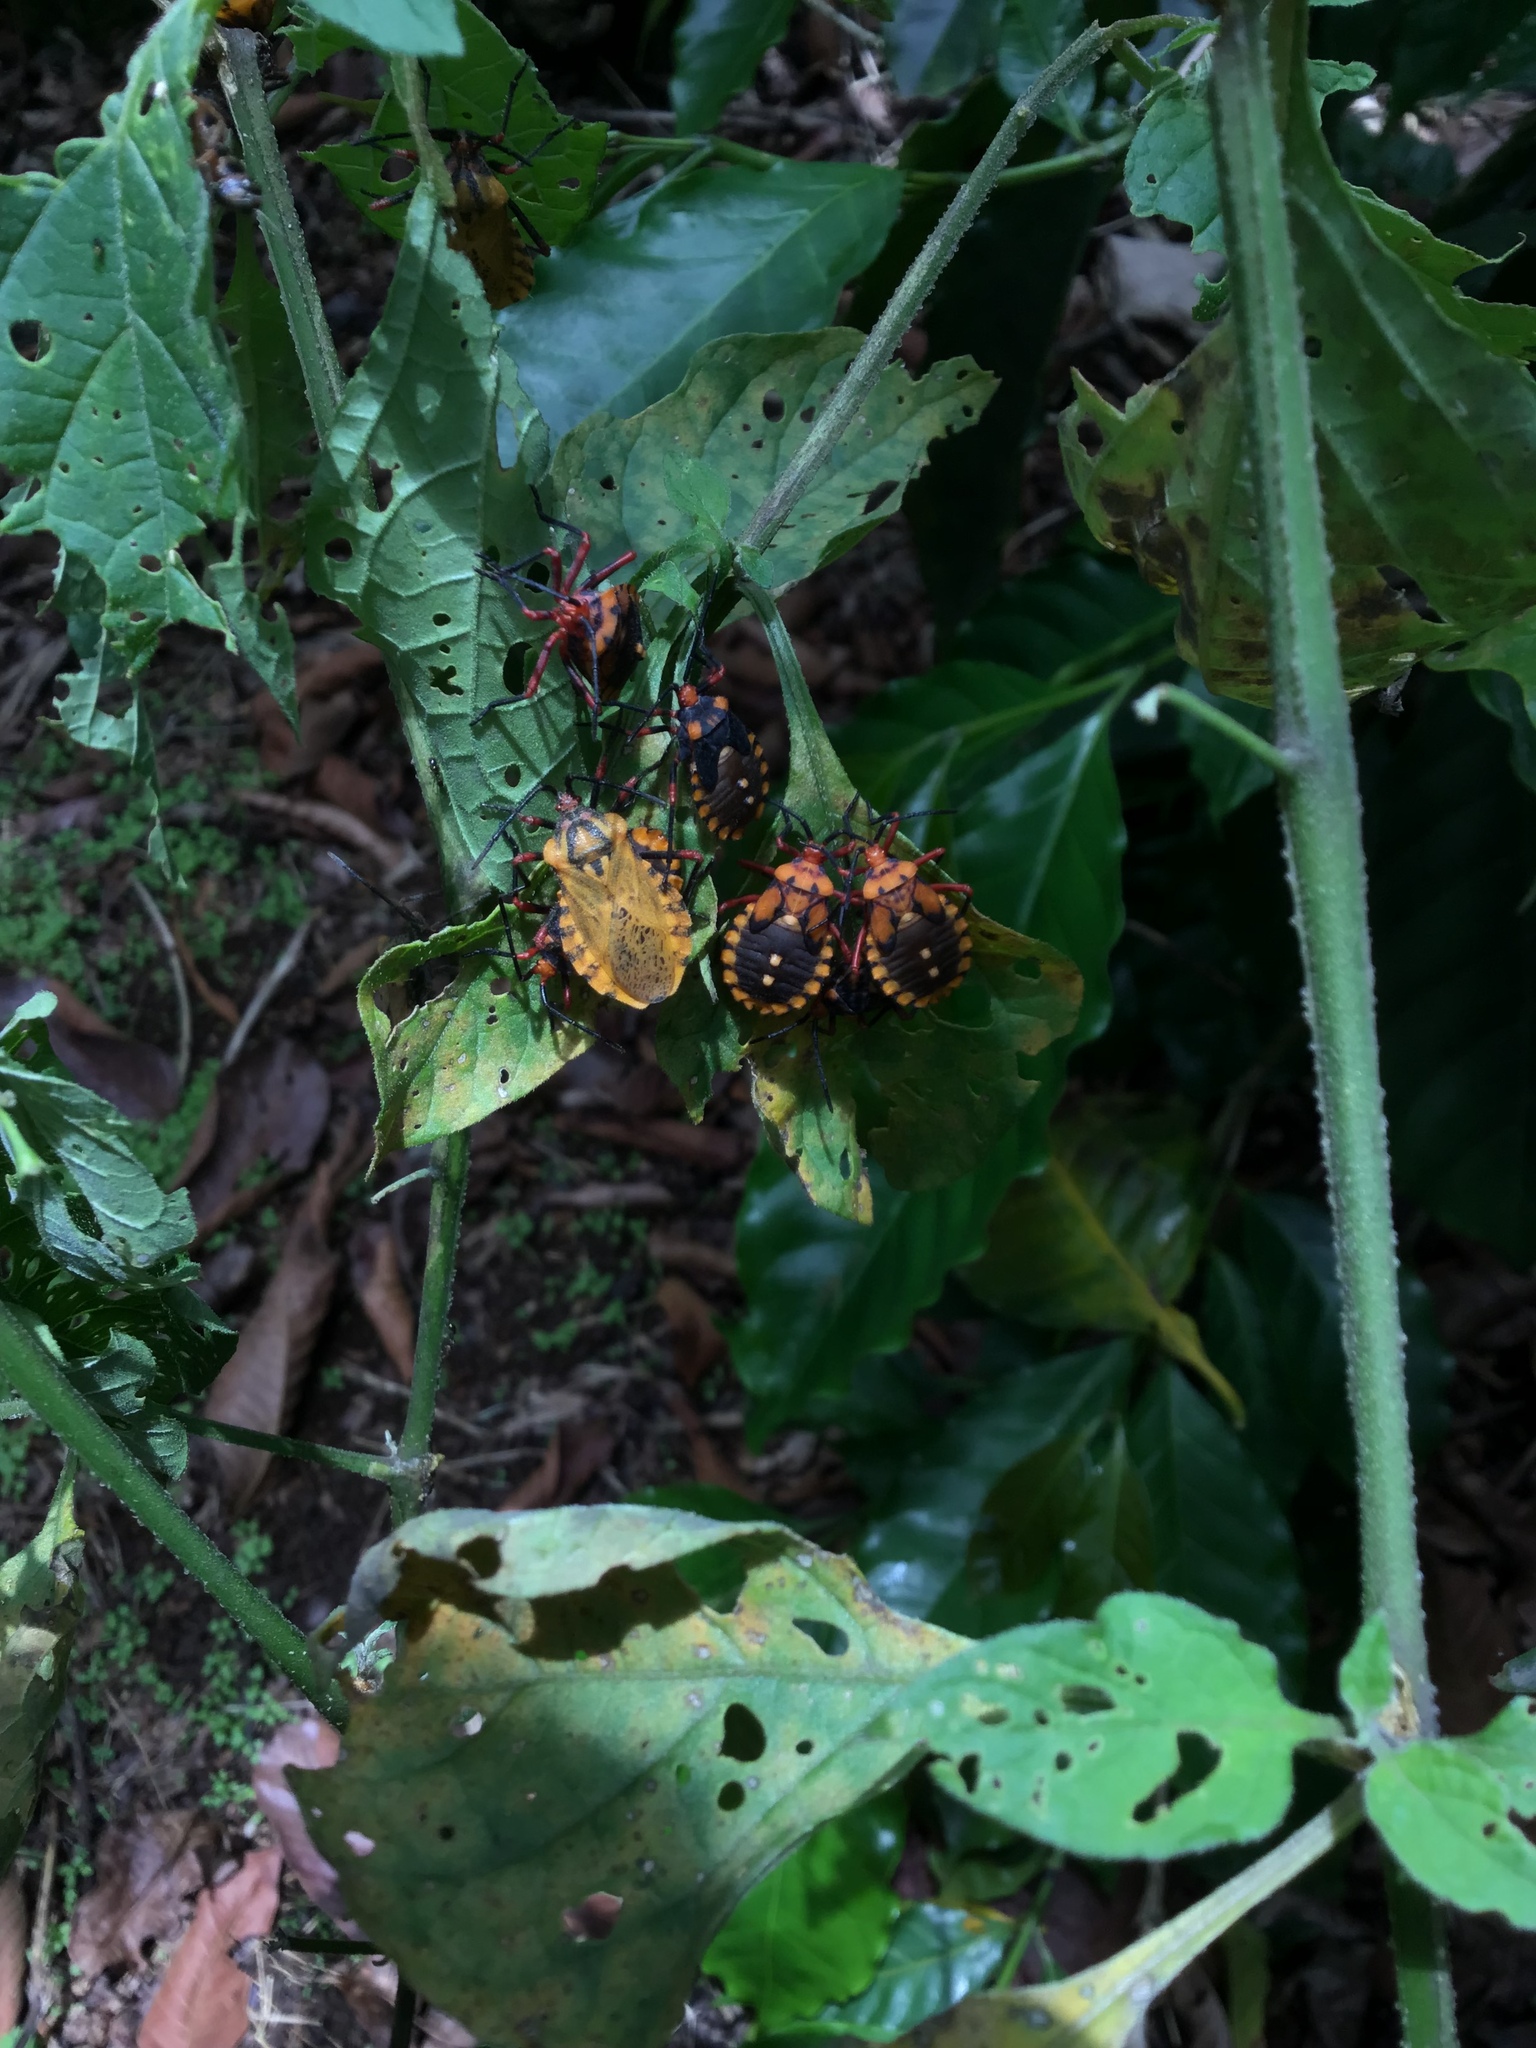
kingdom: Animalia
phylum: Arthropoda
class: Insecta
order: Hemiptera
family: Coreidae
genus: Spartocera
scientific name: Spartocera fusca
